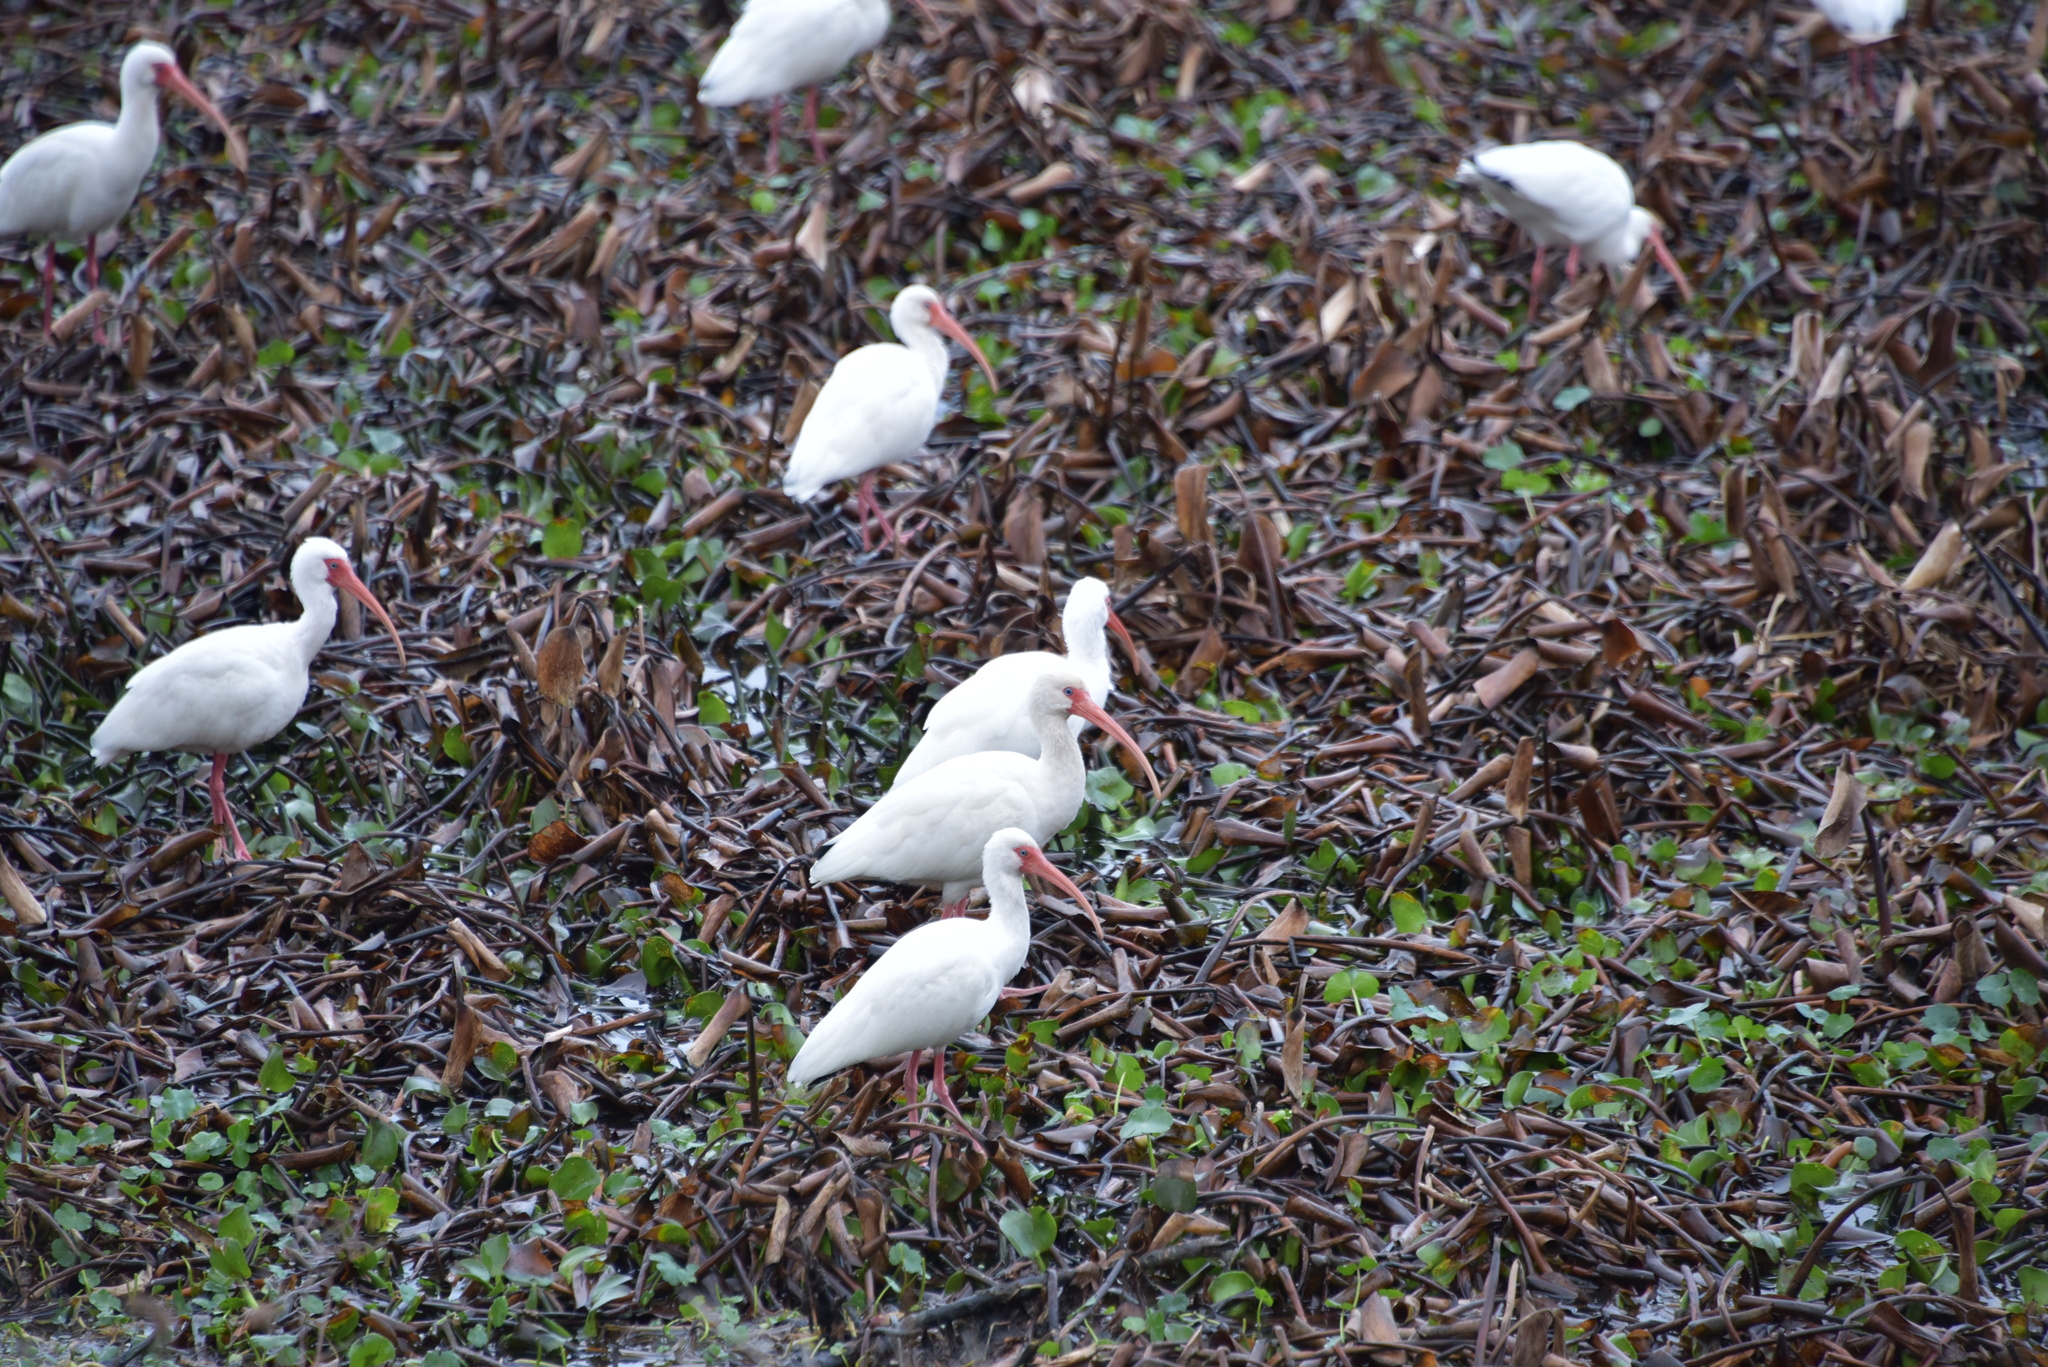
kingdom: Animalia
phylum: Chordata
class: Aves
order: Pelecaniformes
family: Threskiornithidae
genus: Eudocimus
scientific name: Eudocimus albus
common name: White ibis
